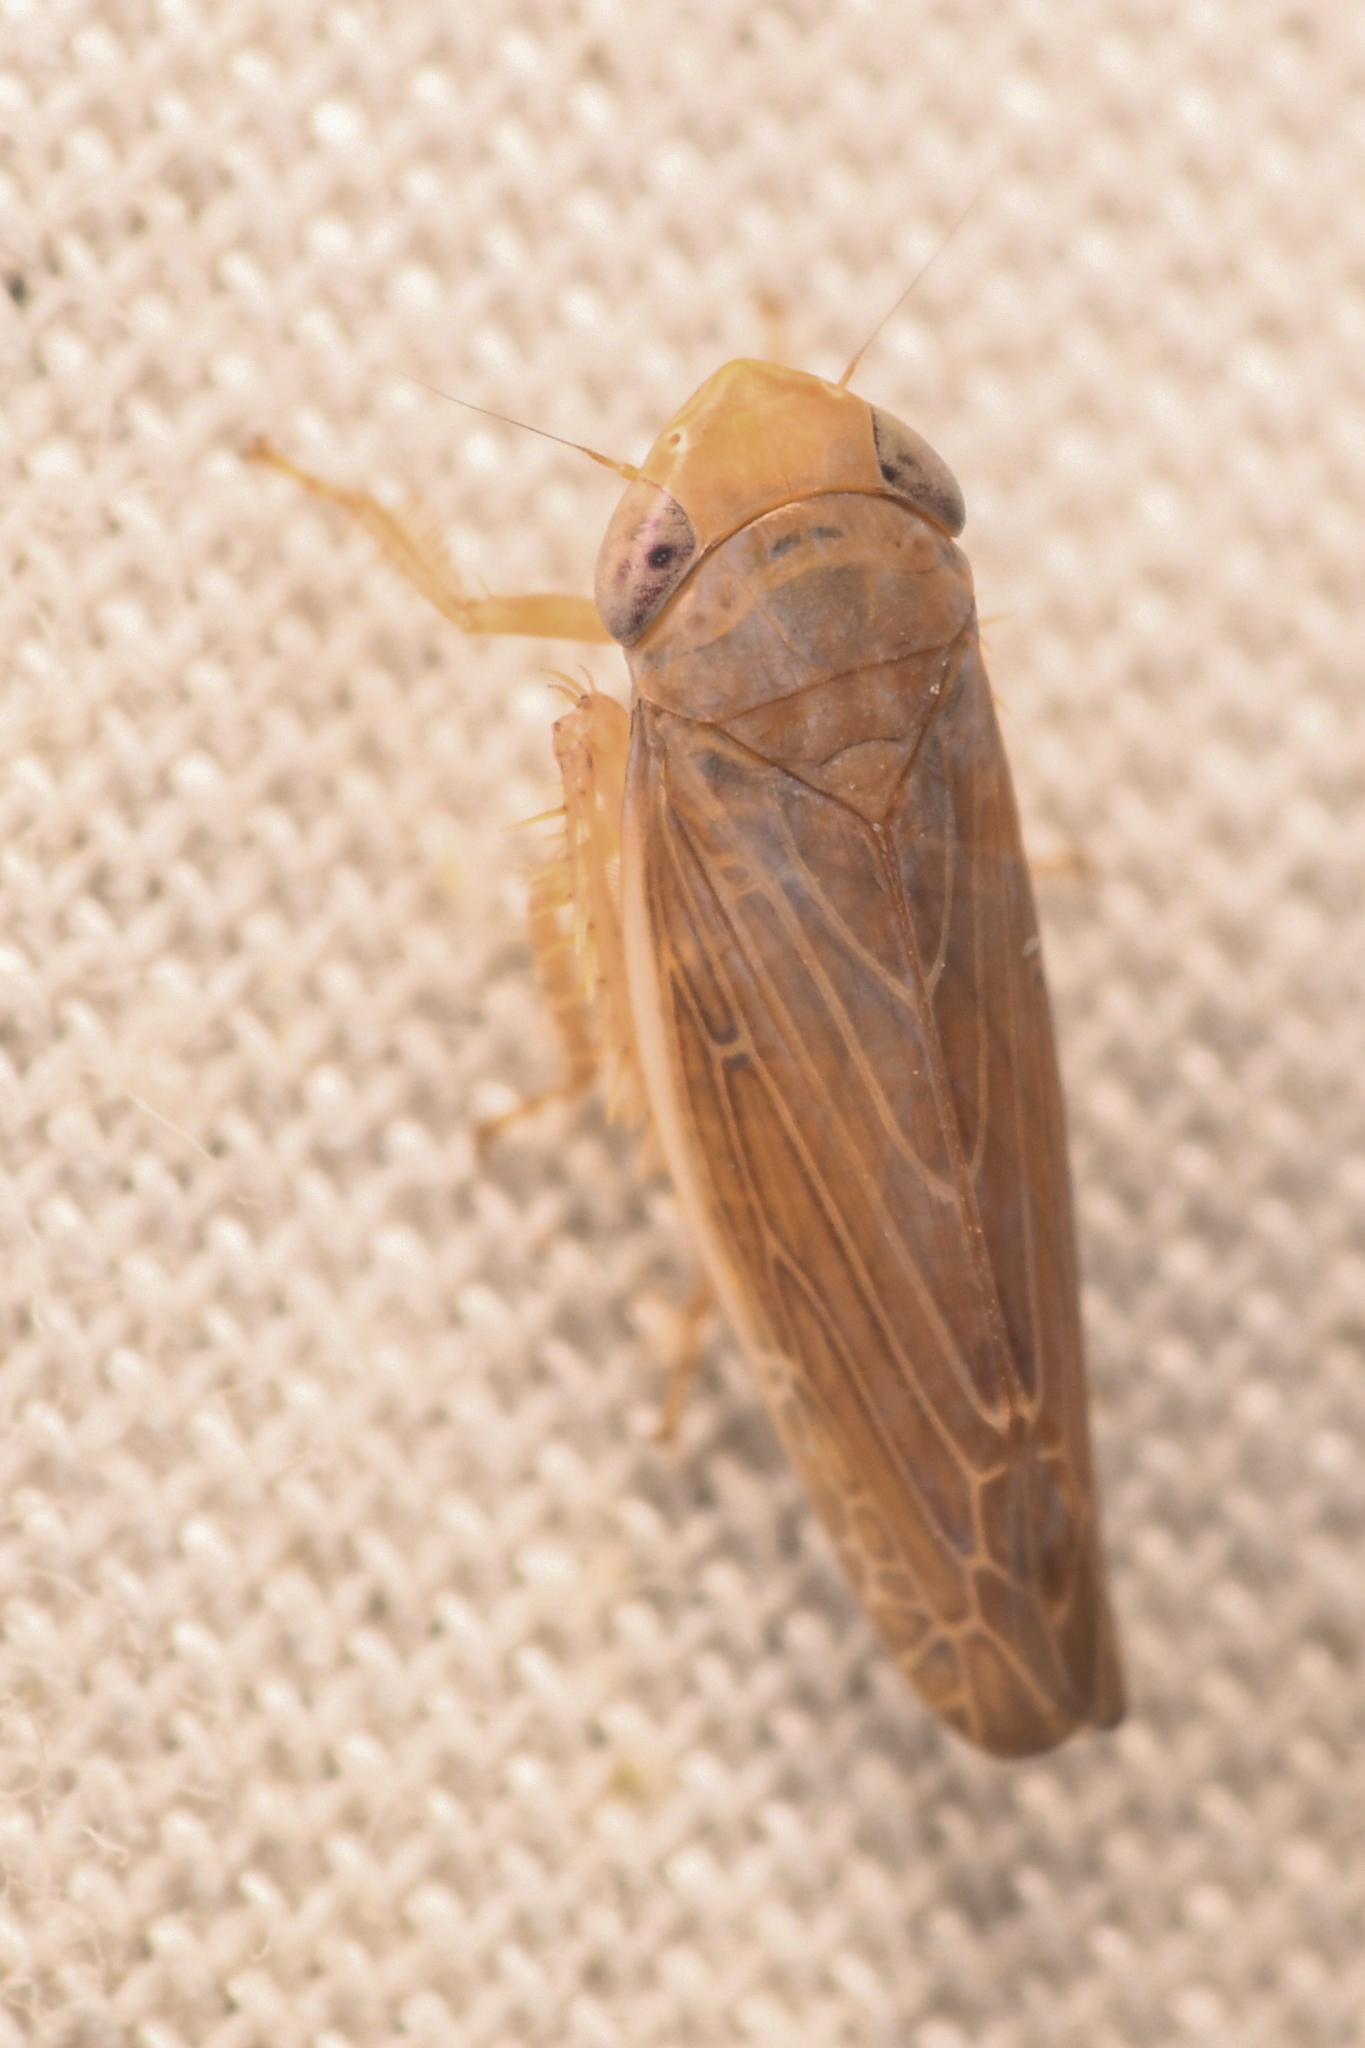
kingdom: Animalia
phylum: Arthropoda
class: Insecta
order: Hemiptera
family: Cicadellidae
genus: Limbanus
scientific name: Limbanus omani
